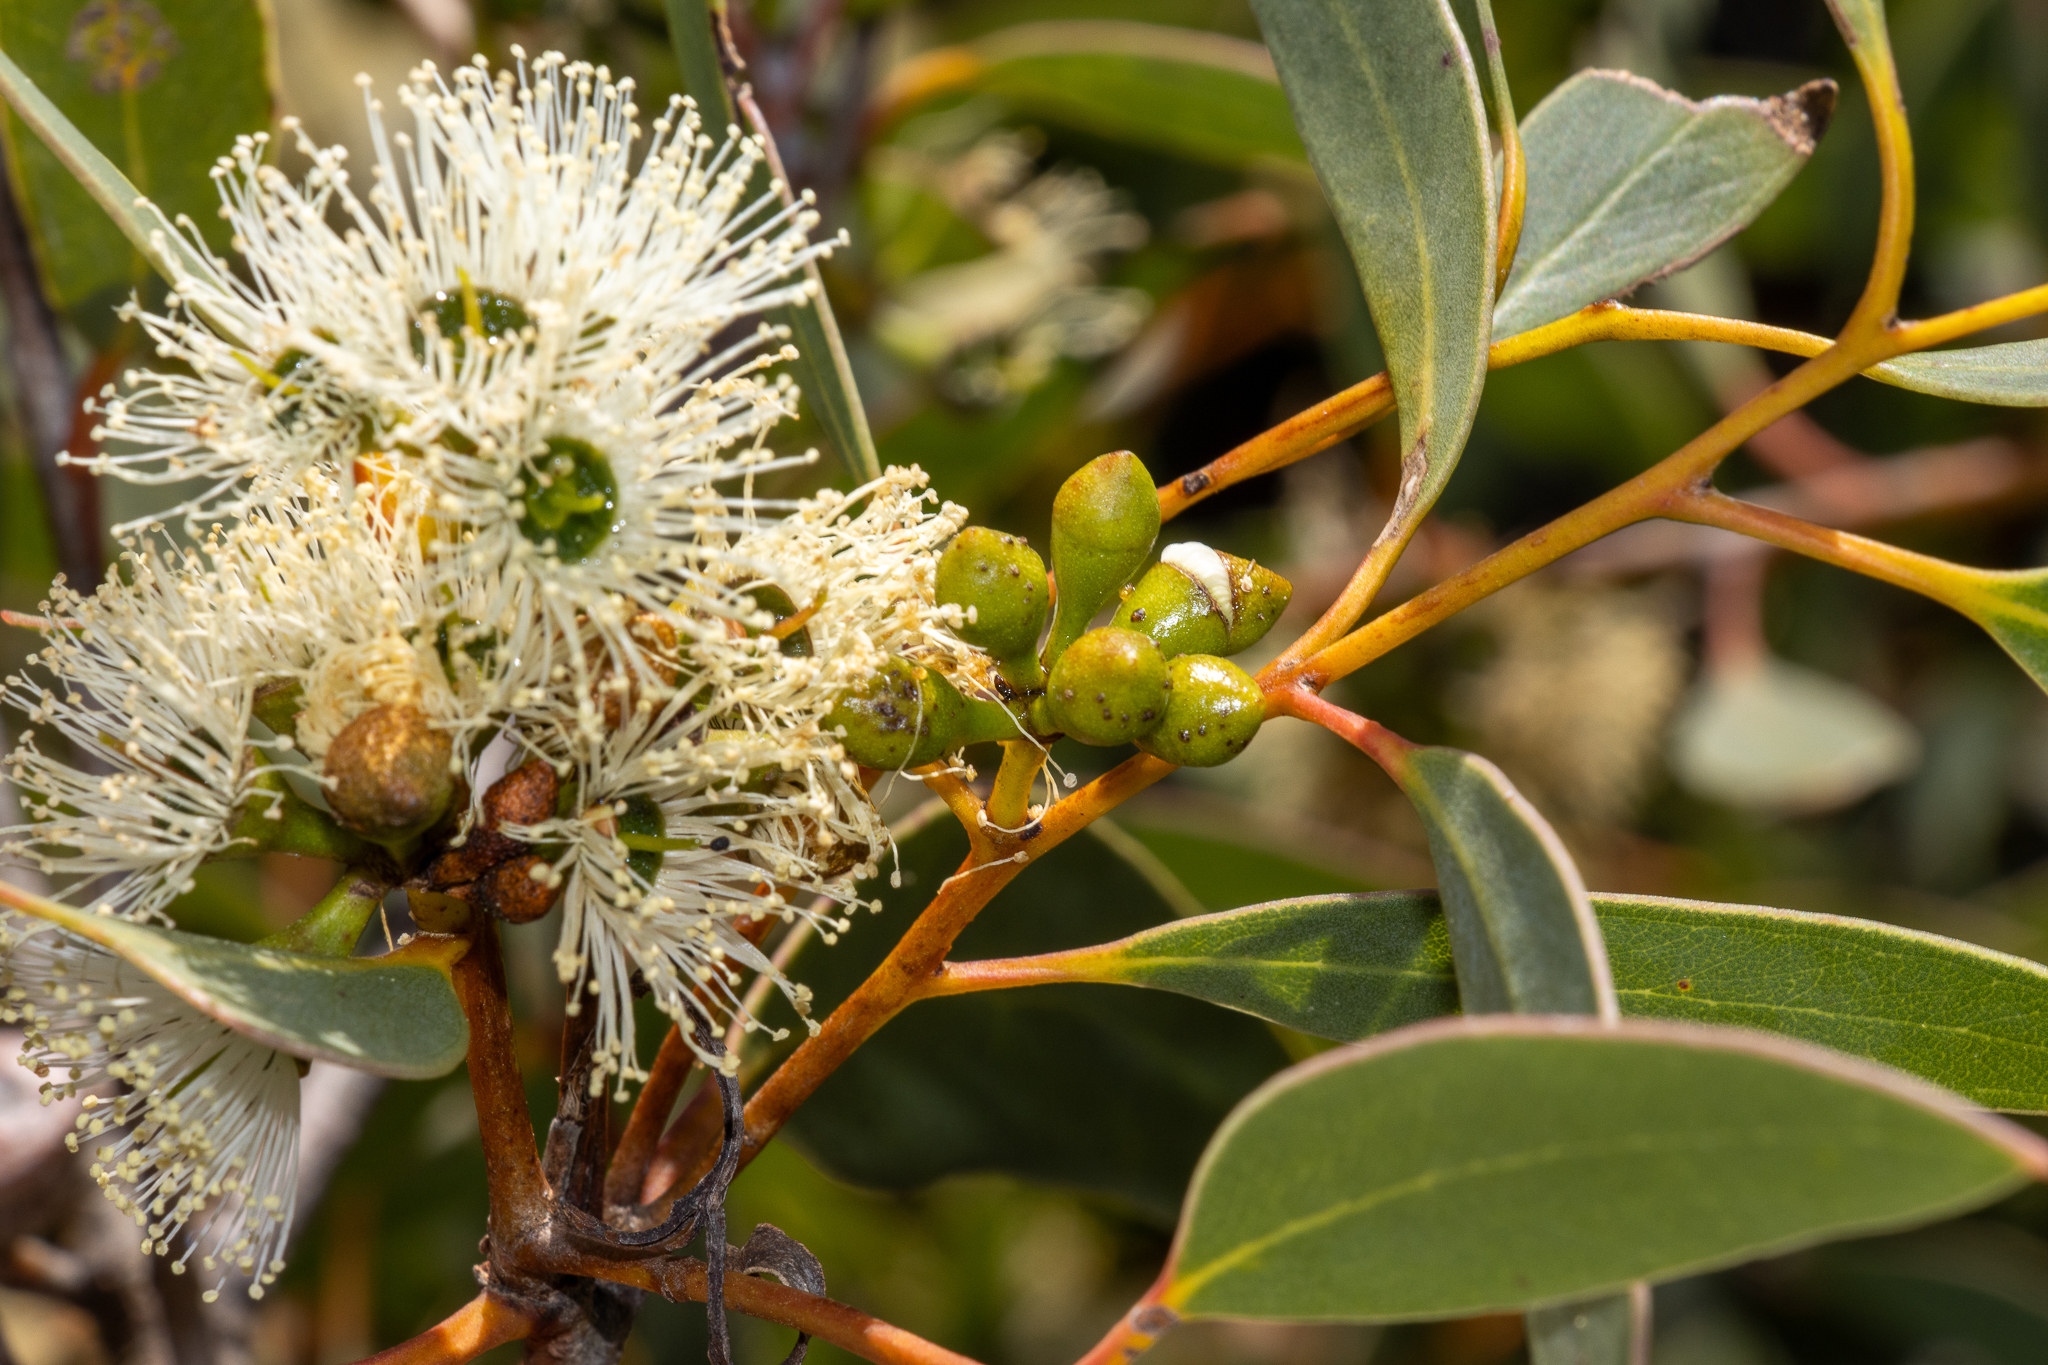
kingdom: Plantae
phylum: Tracheophyta
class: Magnoliopsida
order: Myrtales
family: Myrtaceae
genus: Eucalyptus
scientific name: Eucalyptus diversifolia
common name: Coastal white mallee
